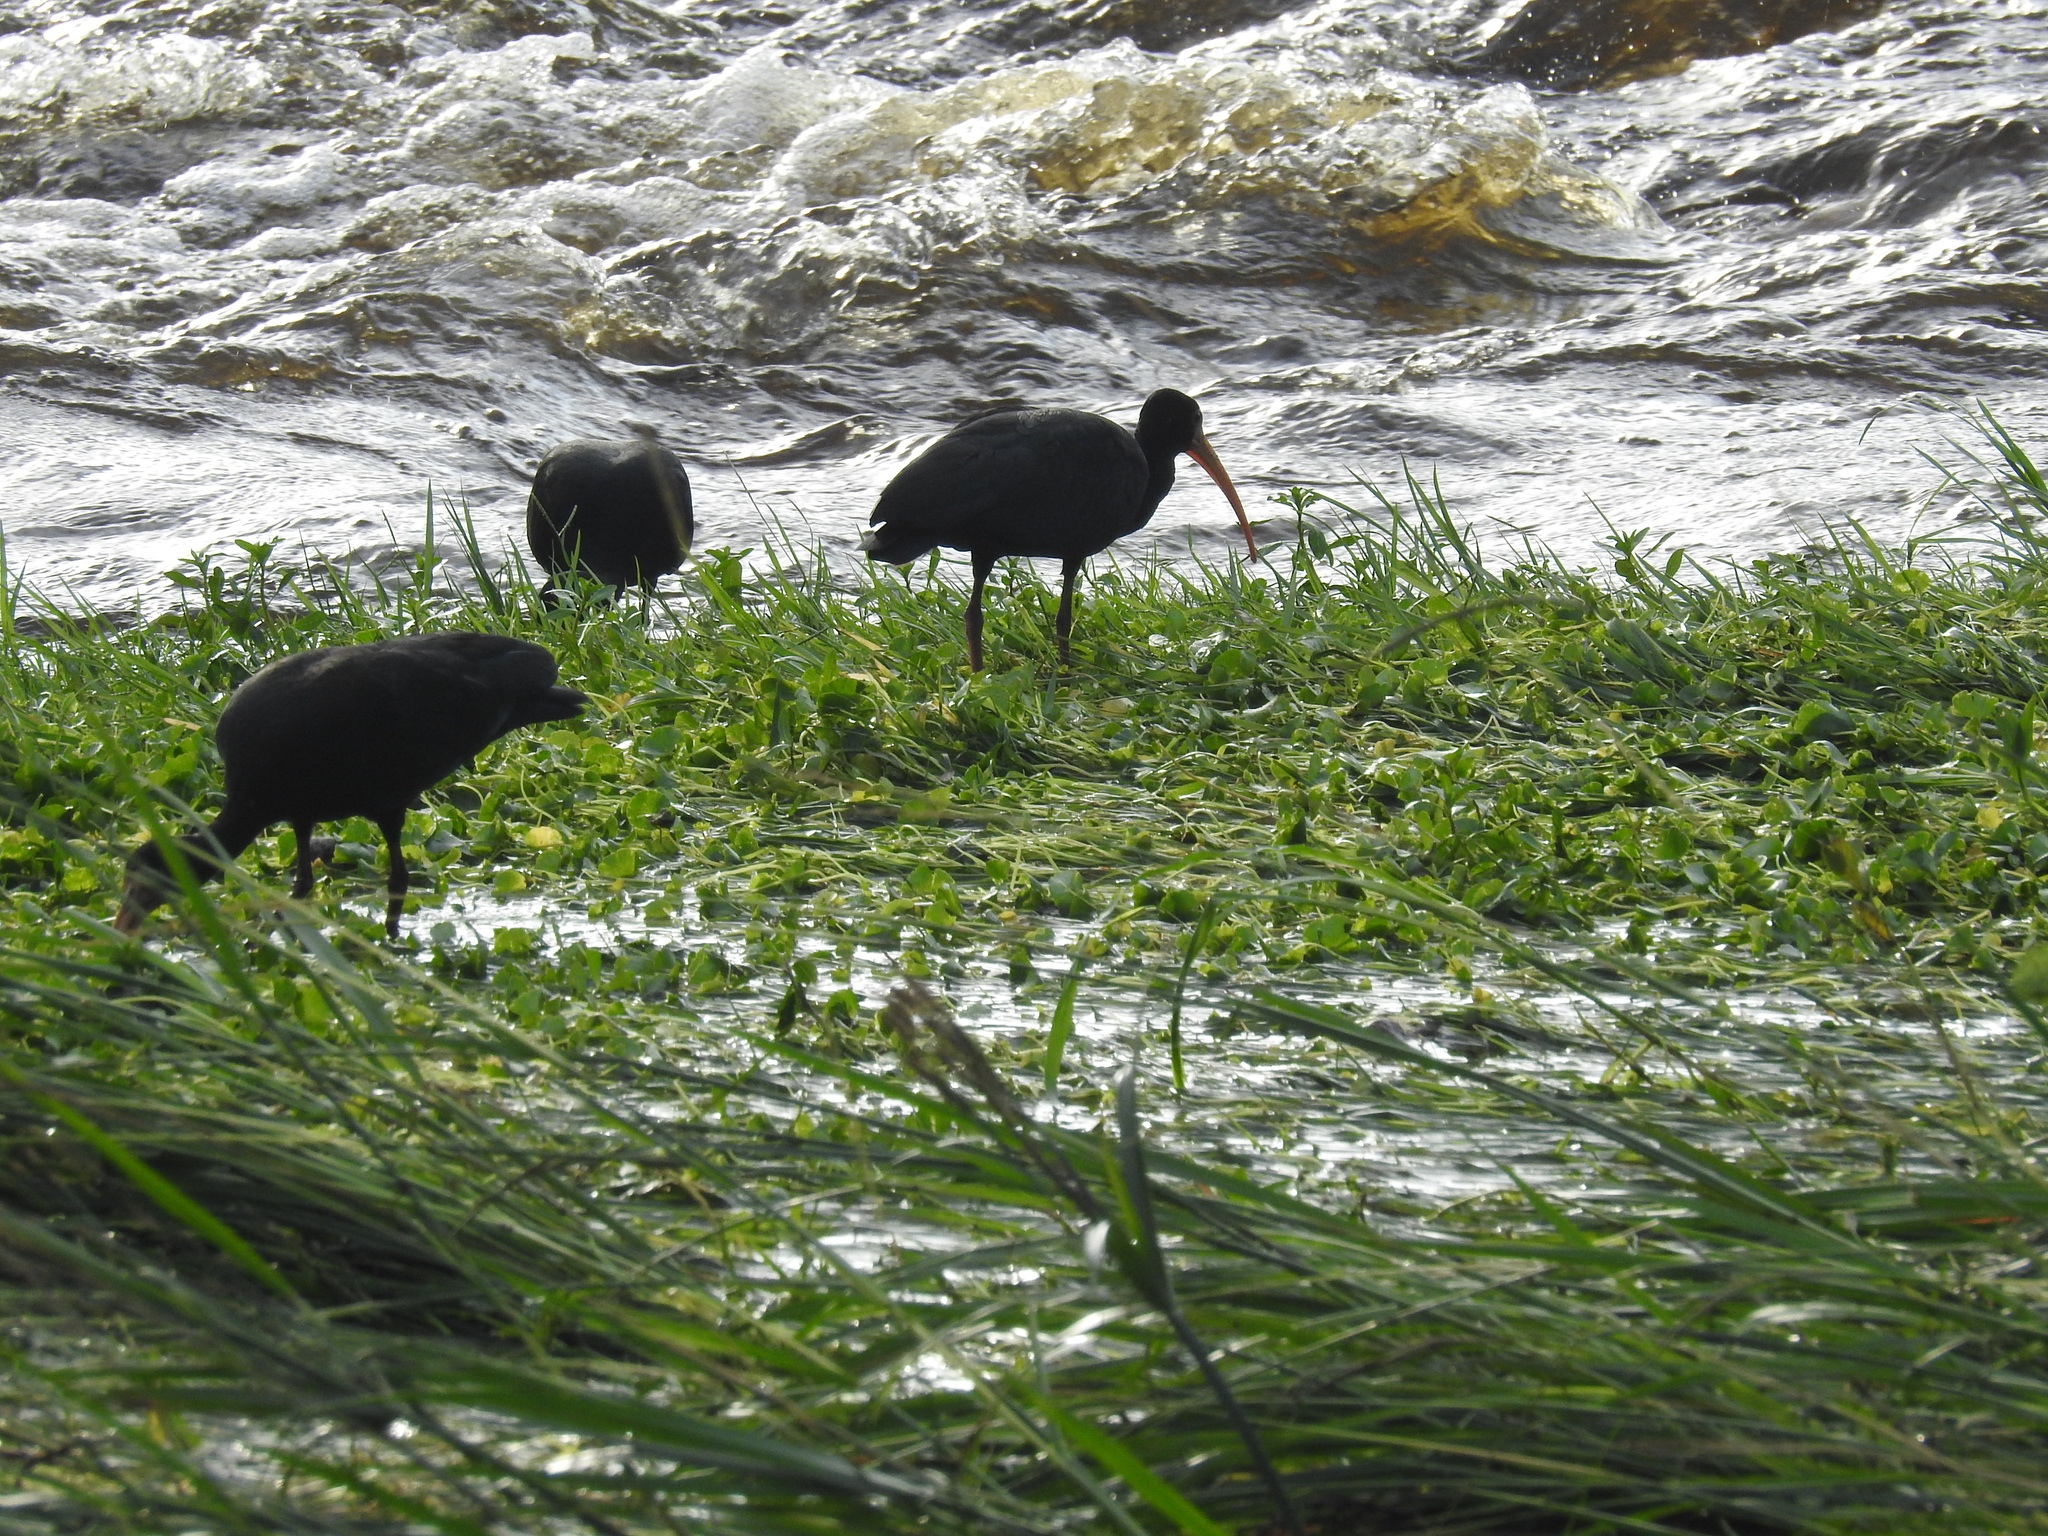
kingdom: Animalia
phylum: Chordata
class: Aves
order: Pelecaniformes
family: Threskiornithidae
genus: Phimosus
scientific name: Phimosus infuscatus
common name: Bare-faced ibis
